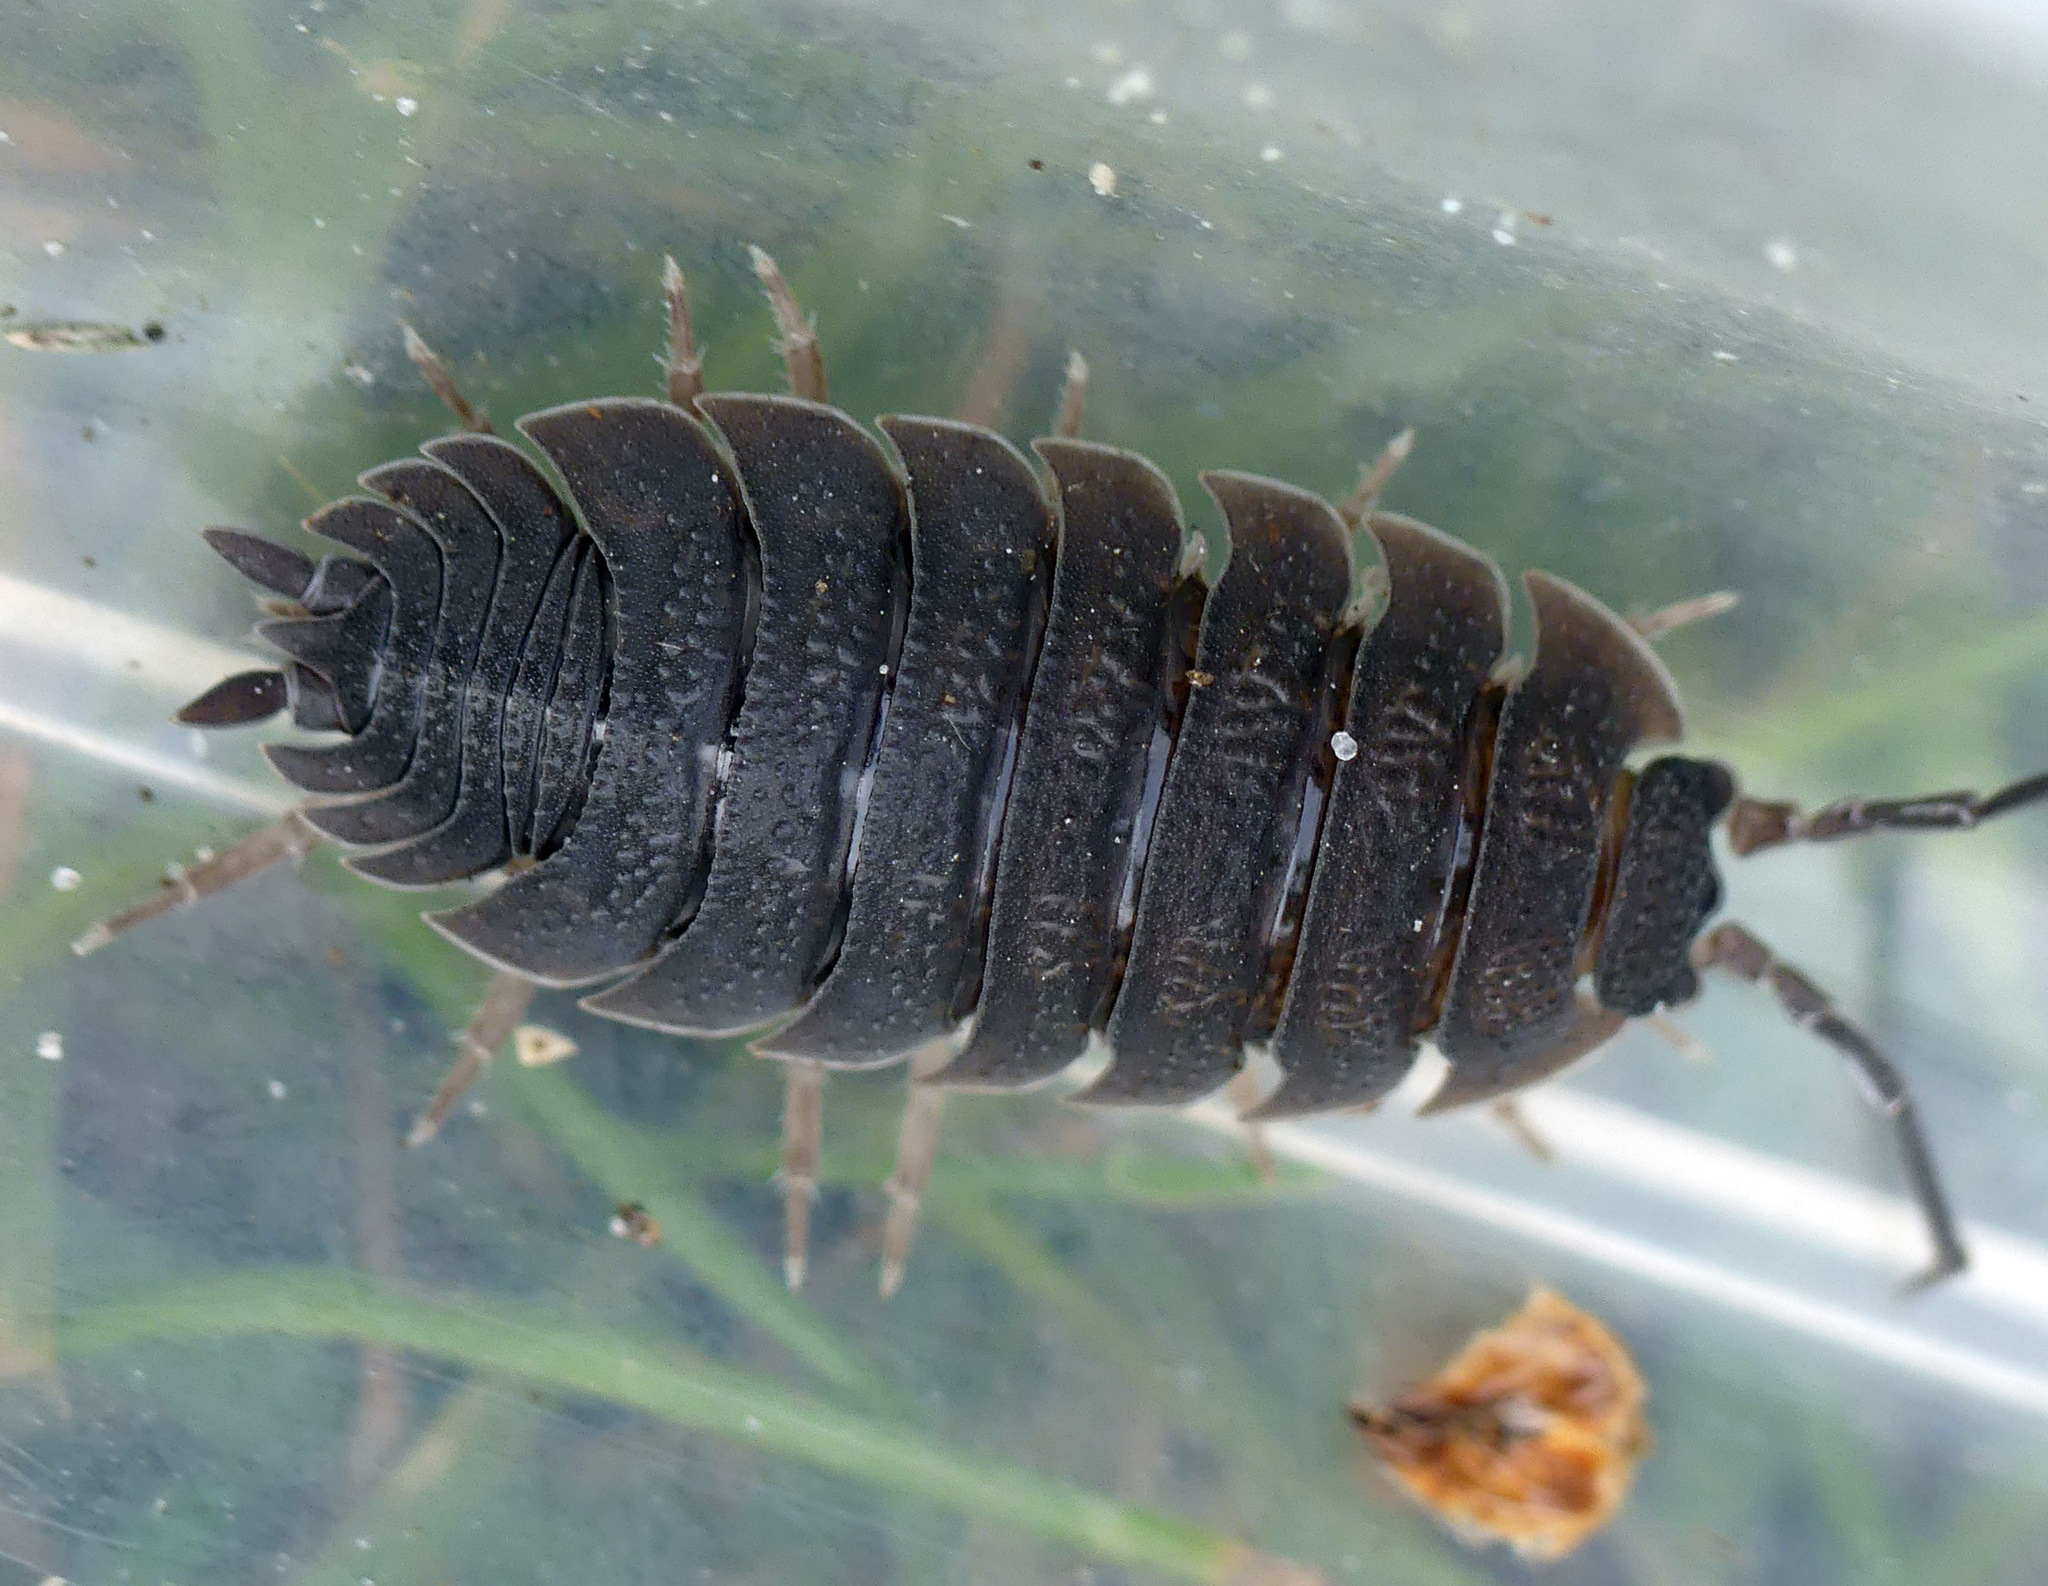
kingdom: Animalia
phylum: Arthropoda
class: Malacostraca
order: Isopoda
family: Porcellionidae
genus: Porcellio
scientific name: Porcellio scaber
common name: Common rough woodlouse
